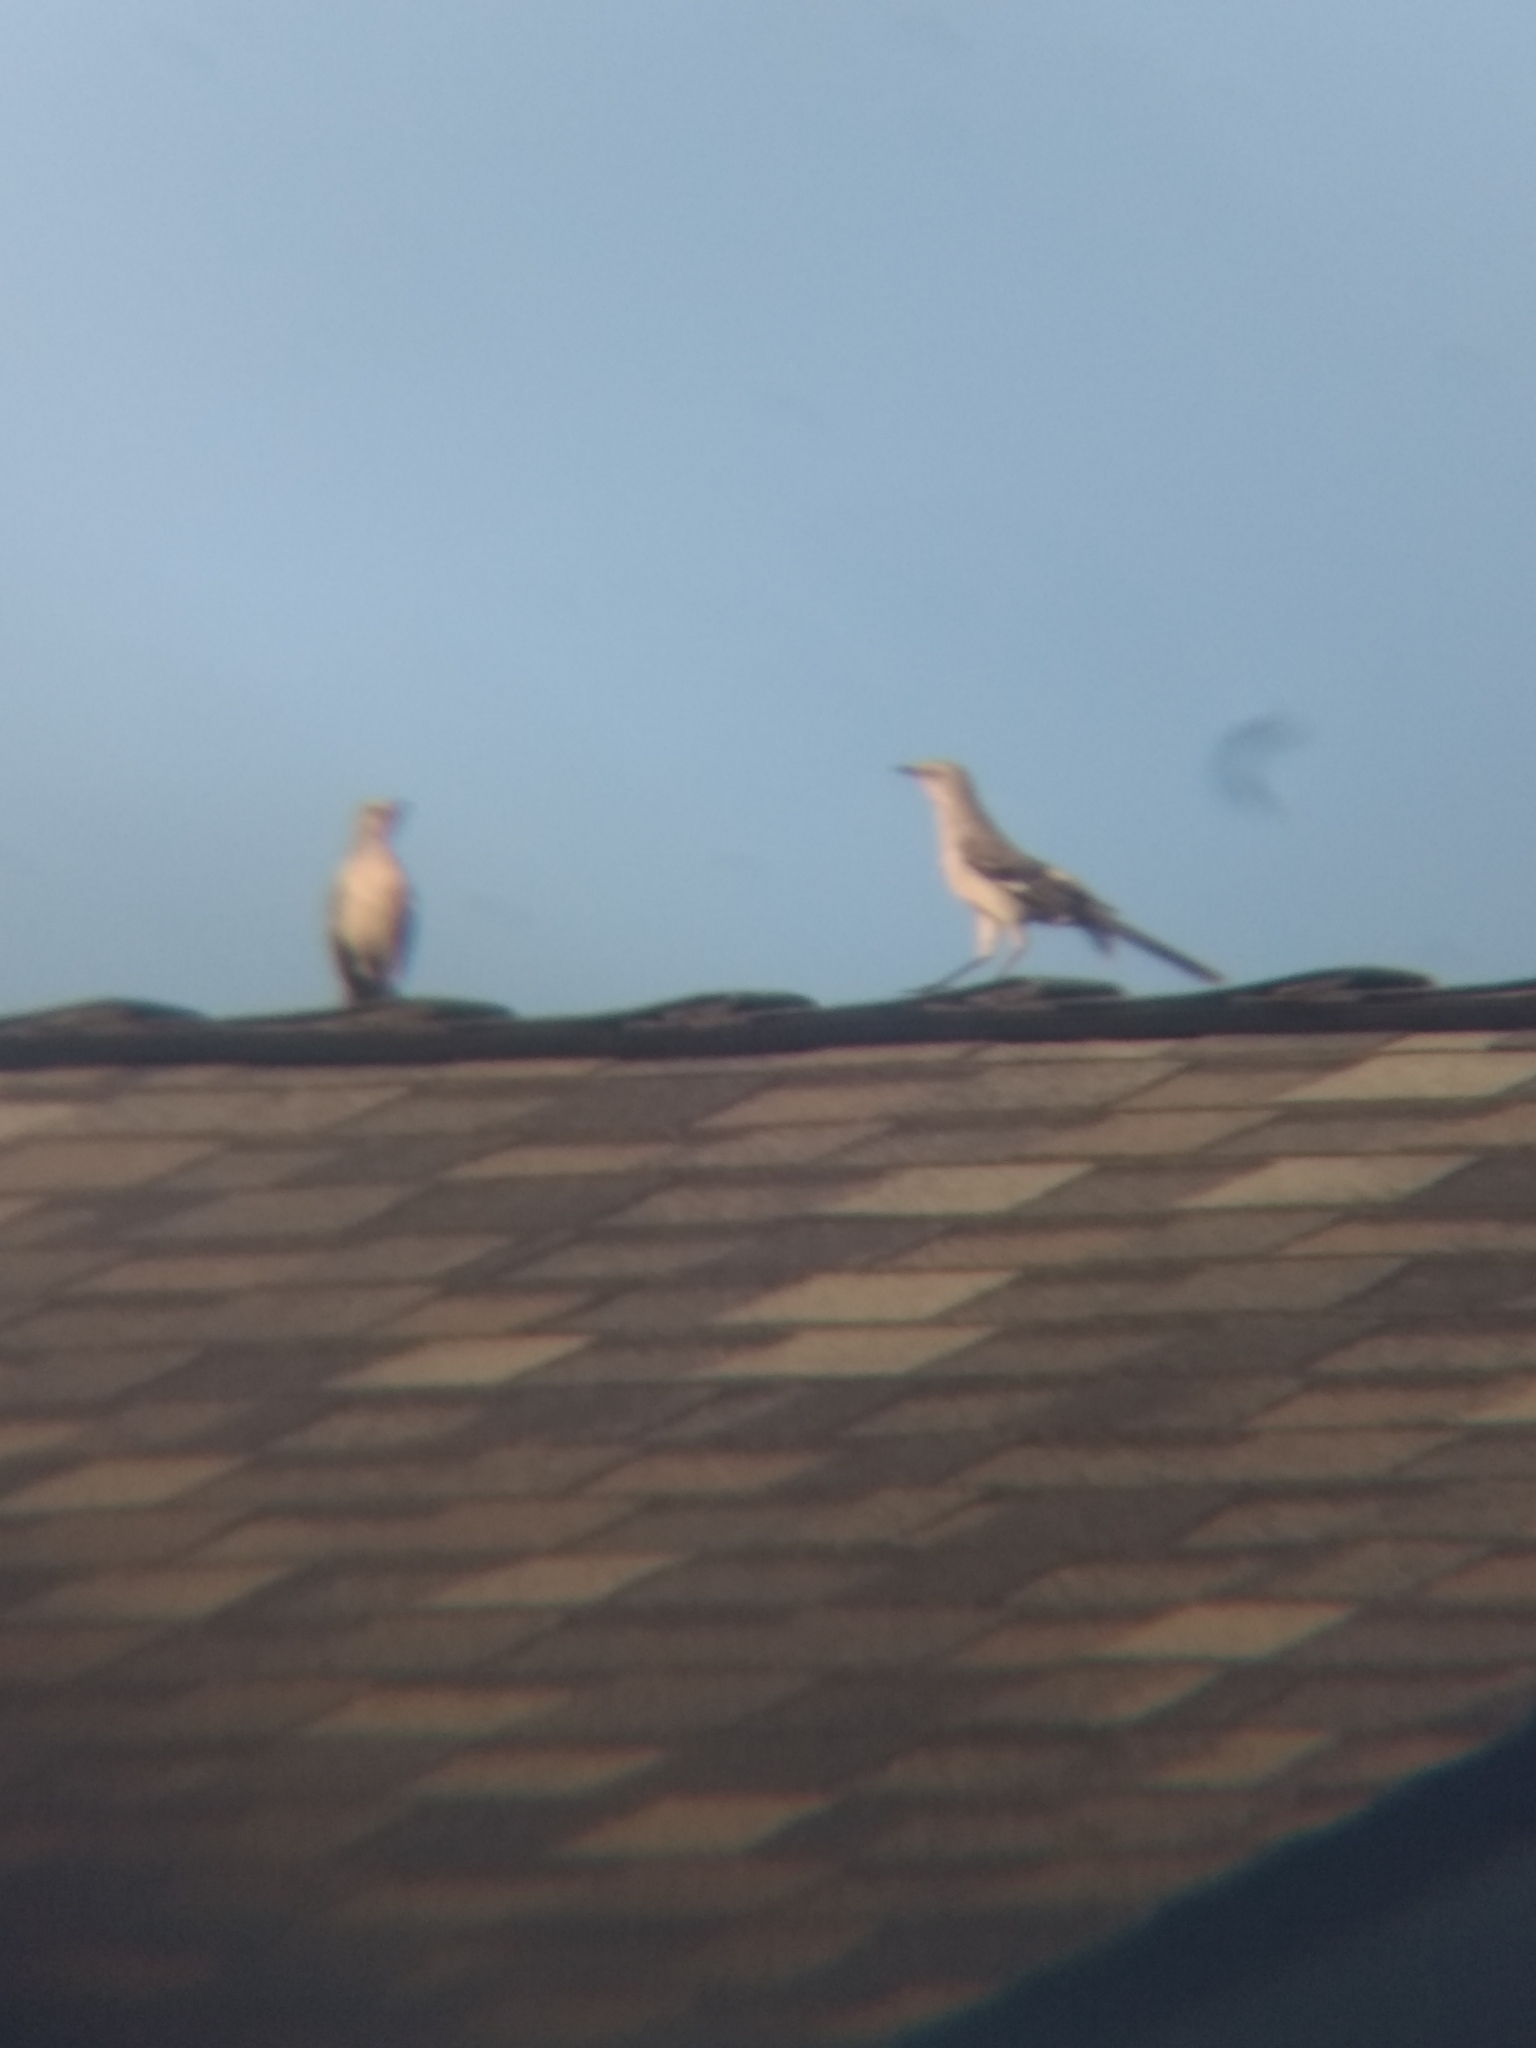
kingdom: Animalia
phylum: Chordata
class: Aves
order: Passeriformes
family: Mimidae
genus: Mimus
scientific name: Mimus polyglottos
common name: Northern mockingbird
